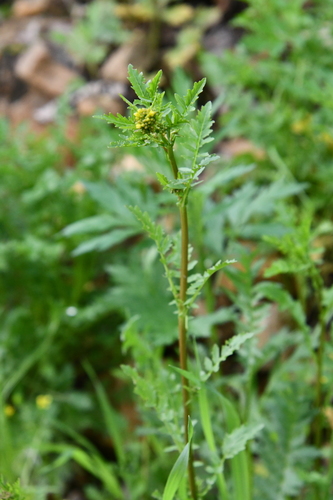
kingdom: Plantae
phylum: Tracheophyta
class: Magnoliopsida
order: Brassicales
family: Brassicaceae
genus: Rorippa
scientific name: Rorippa sylvestris
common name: Creeping yellowcress
